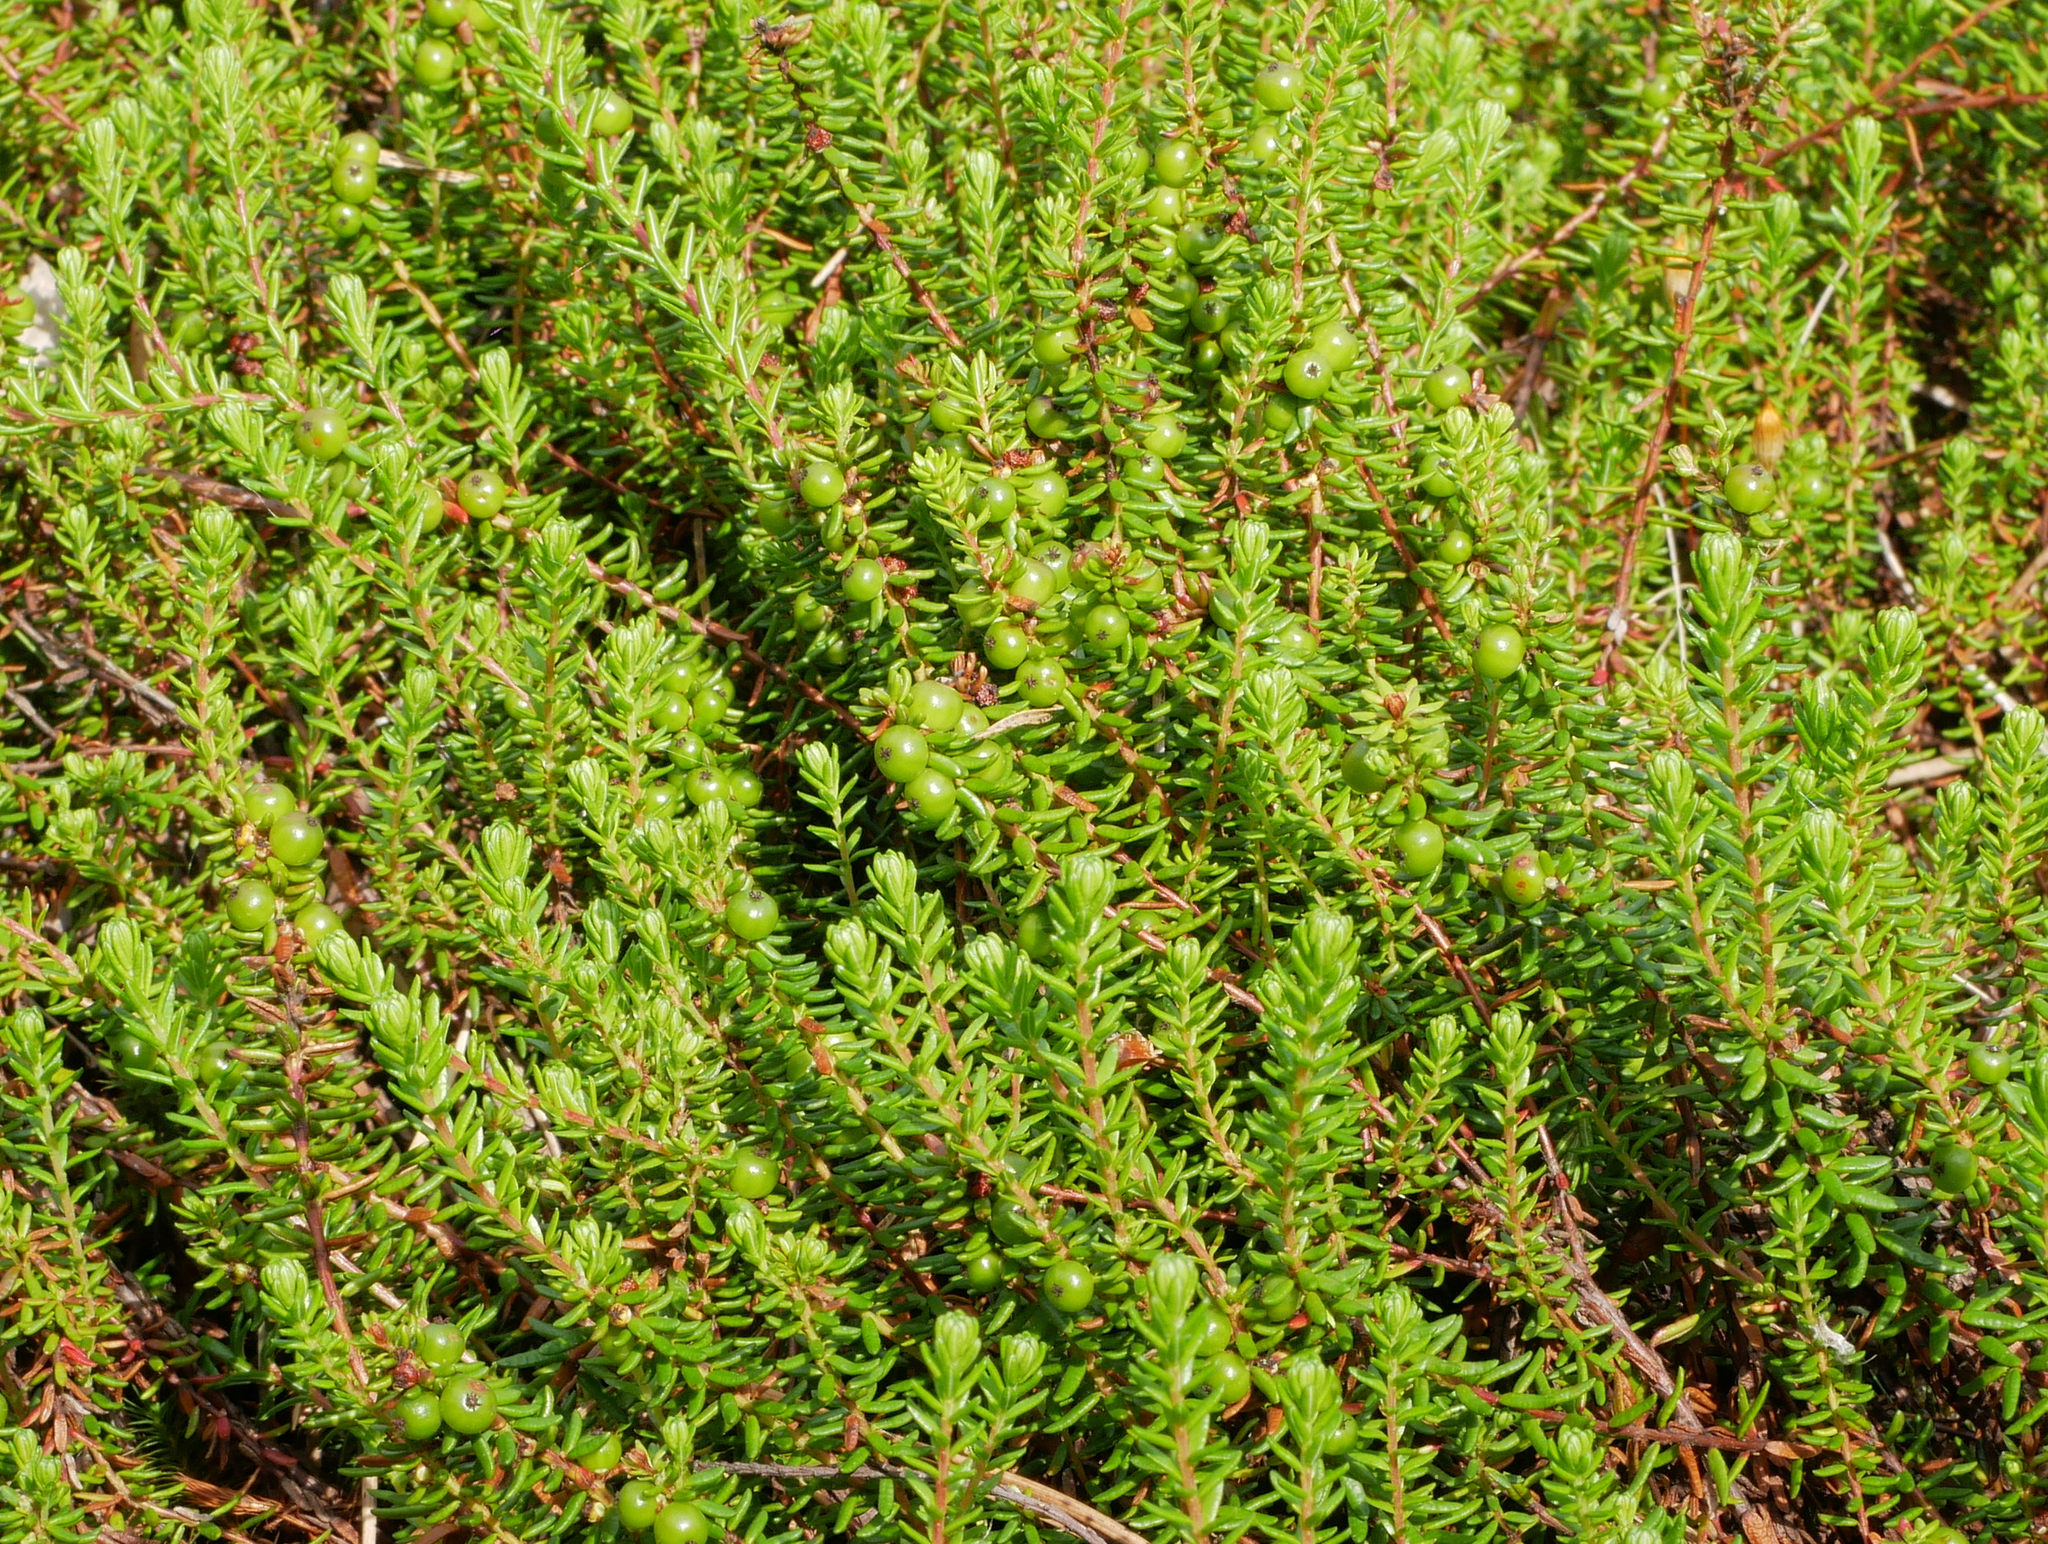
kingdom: Plantae
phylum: Tracheophyta
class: Magnoliopsida
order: Ericales
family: Ericaceae
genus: Empetrum
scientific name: Empetrum nigrum
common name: Black crowberry
